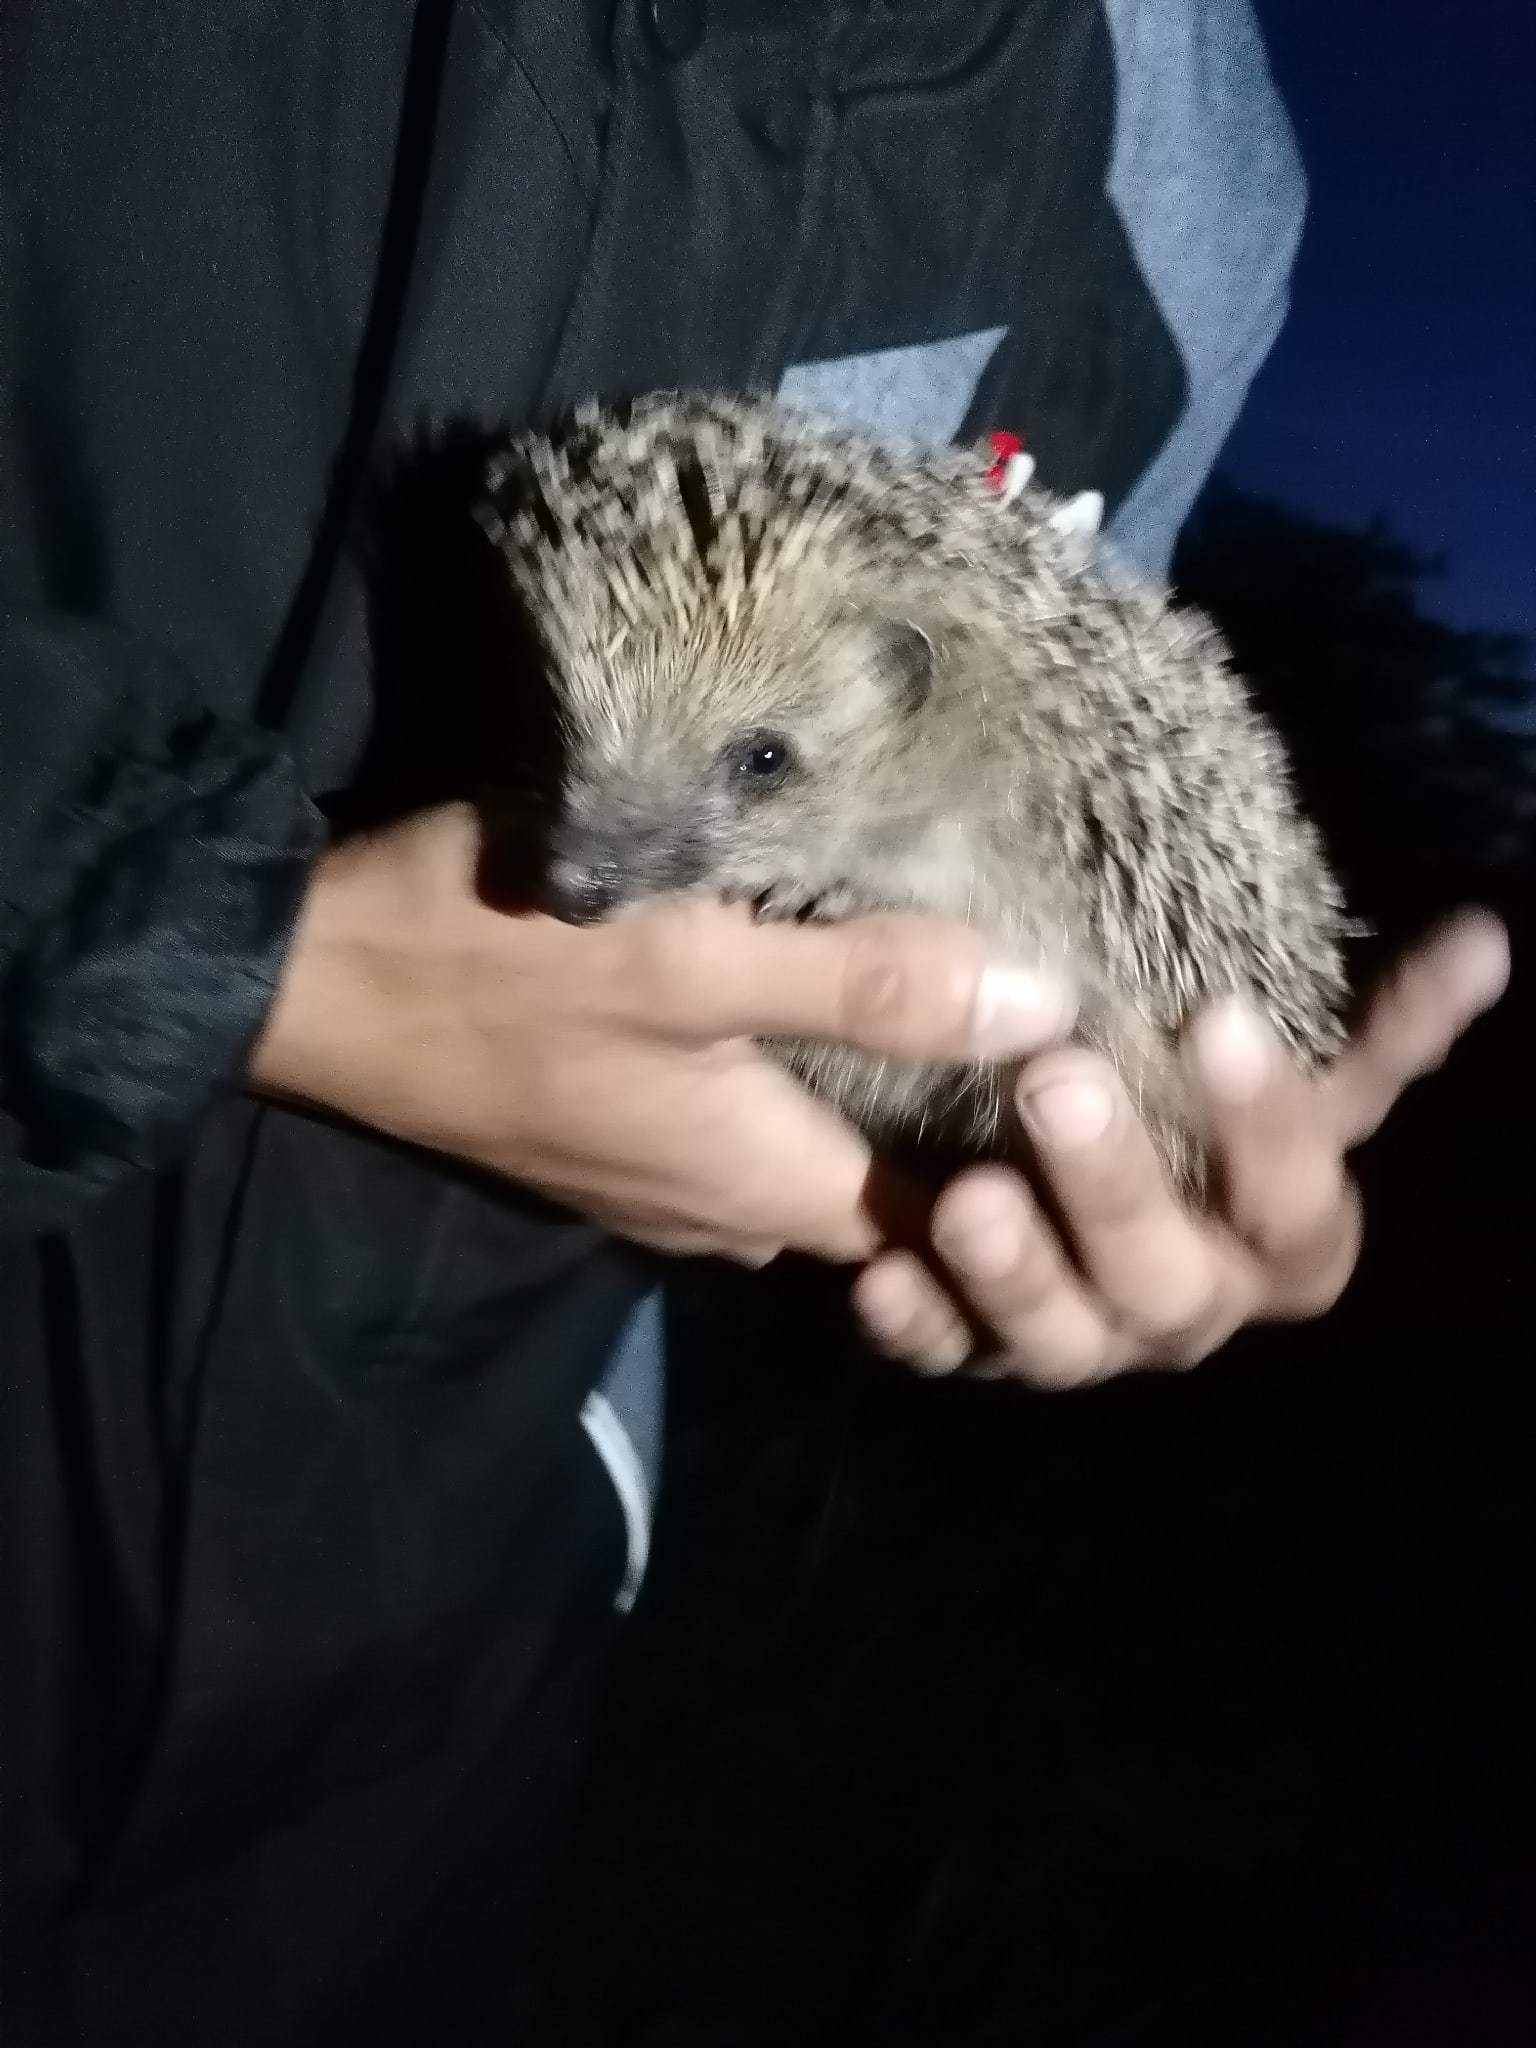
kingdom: Animalia
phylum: Chordata
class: Mammalia
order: Erinaceomorpha
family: Erinaceidae
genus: Erinaceus
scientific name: Erinaceus roumanicus
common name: Northern white-breasted hedgehog
